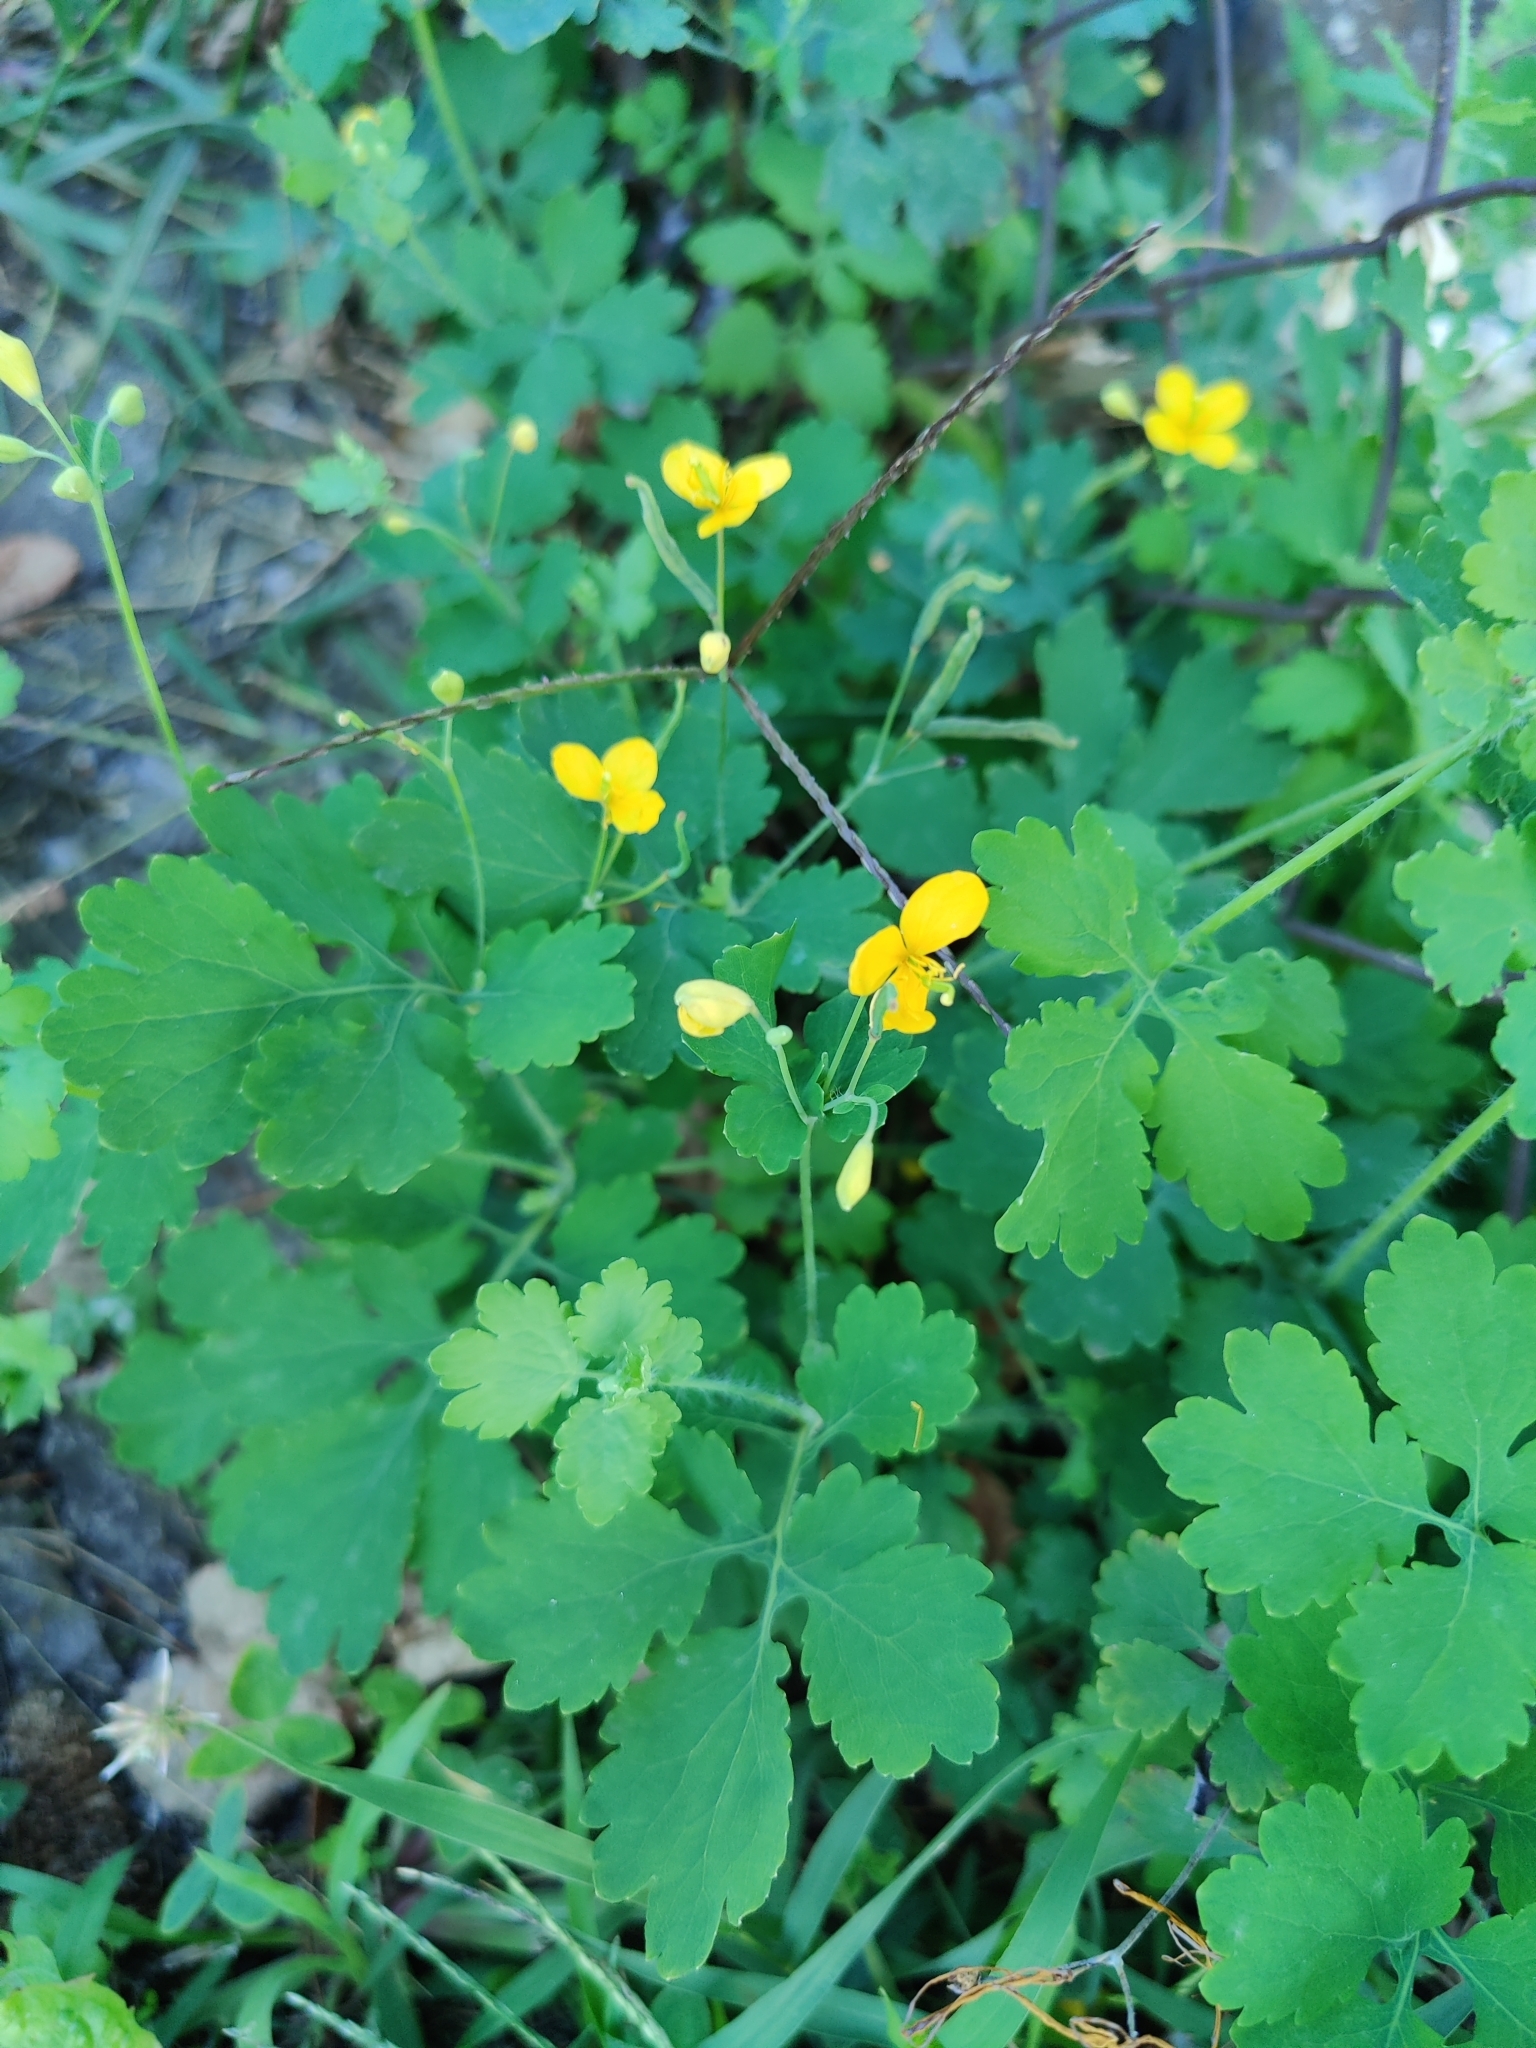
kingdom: Plantae
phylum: Tracheophyta
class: Magnoliopsida
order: Ranunculales
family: Papaveraceae
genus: Chelidonium
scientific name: Chelidonium majus
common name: Greater celandine
